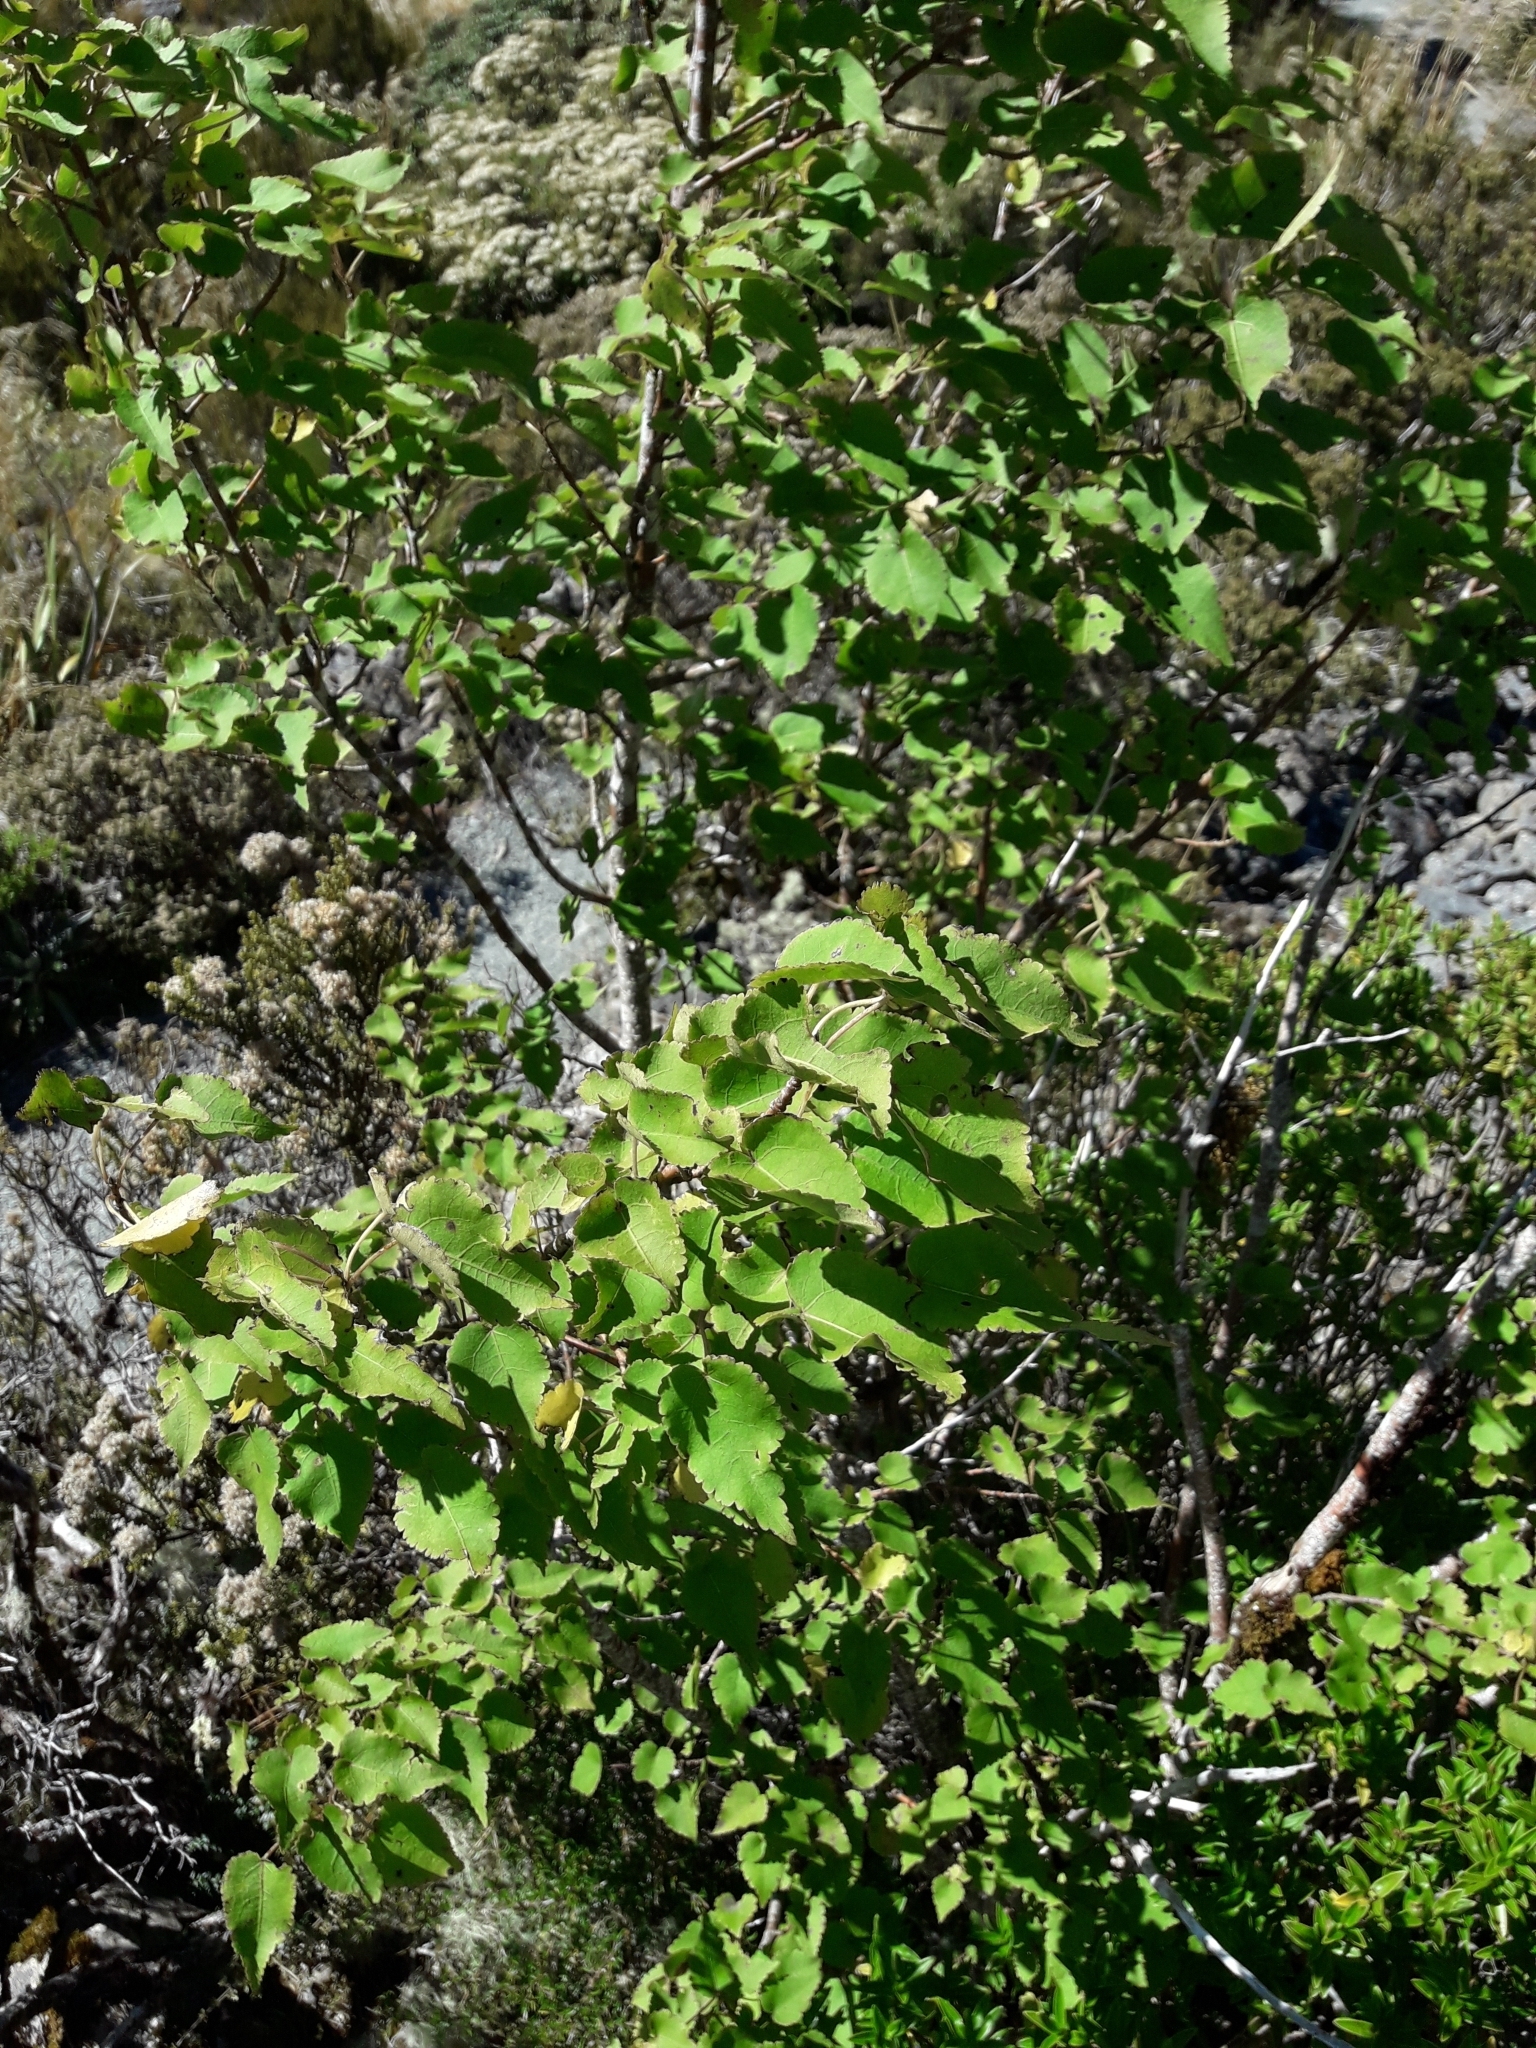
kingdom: Plantae
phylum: Tracheophyta
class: Magnoliopsida
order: Malvales
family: Malvaceae
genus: Hoheria
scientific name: Hoheria lyallii
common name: Lacebark
